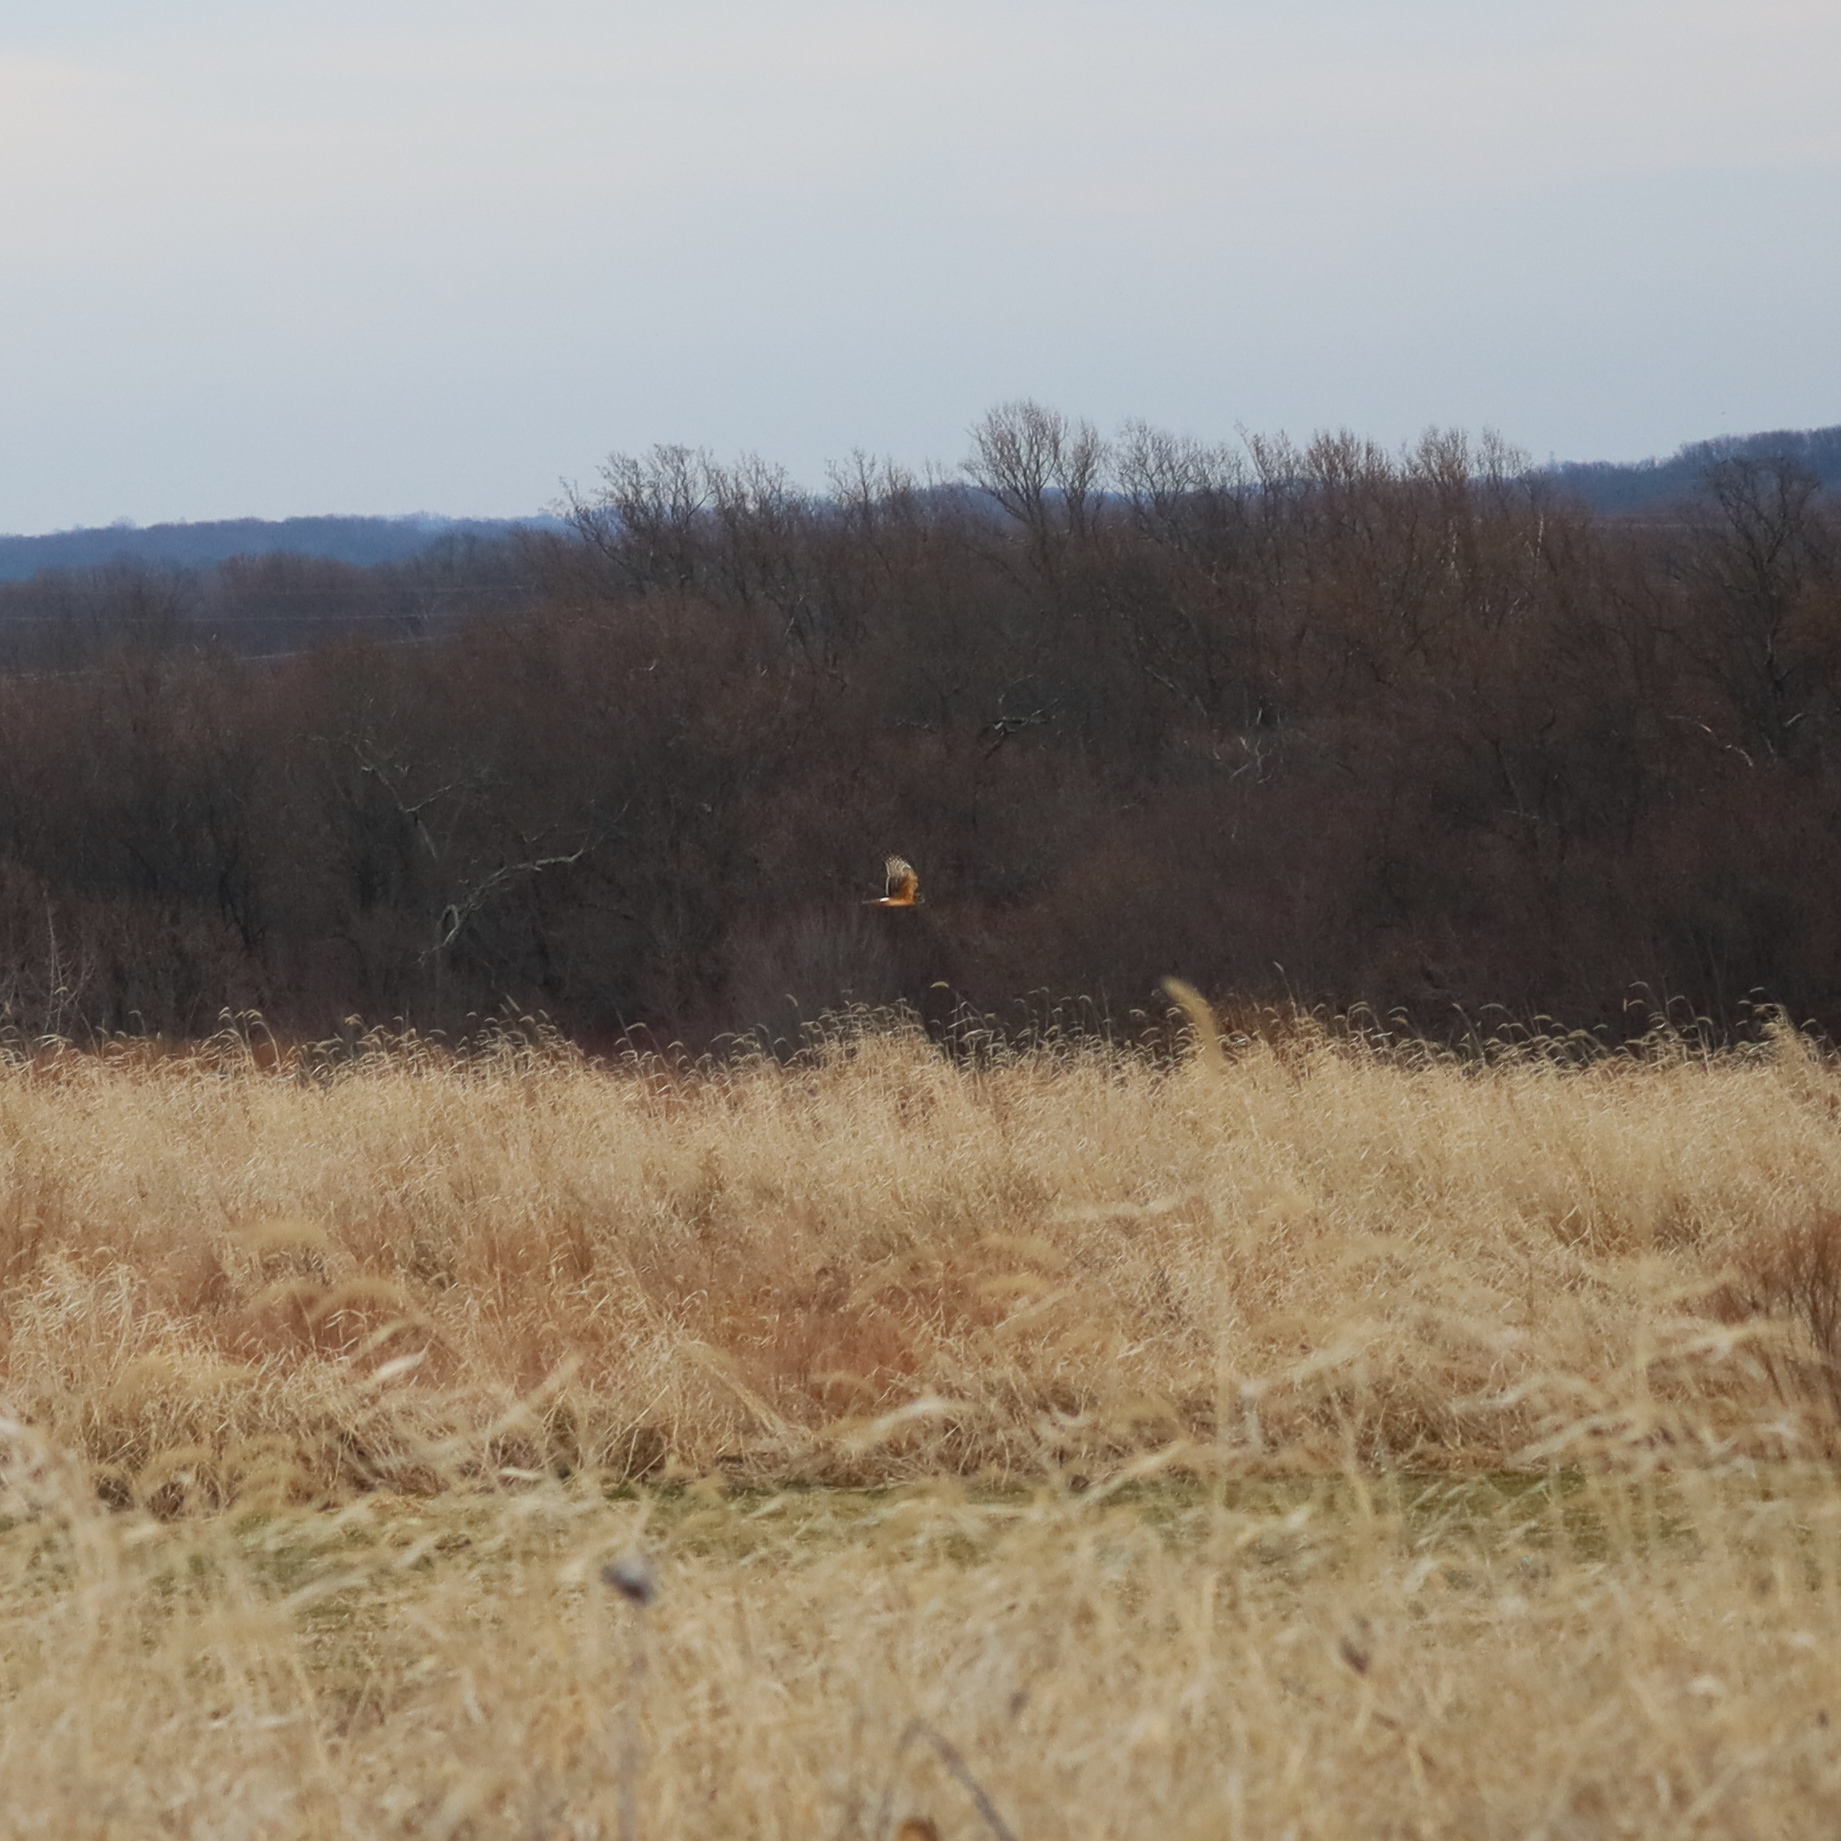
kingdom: Animalia
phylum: Chordata
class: Aves
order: Accipitriformes
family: Accipitridae
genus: Circus
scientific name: Circus cyaneus
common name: Hen harrier
